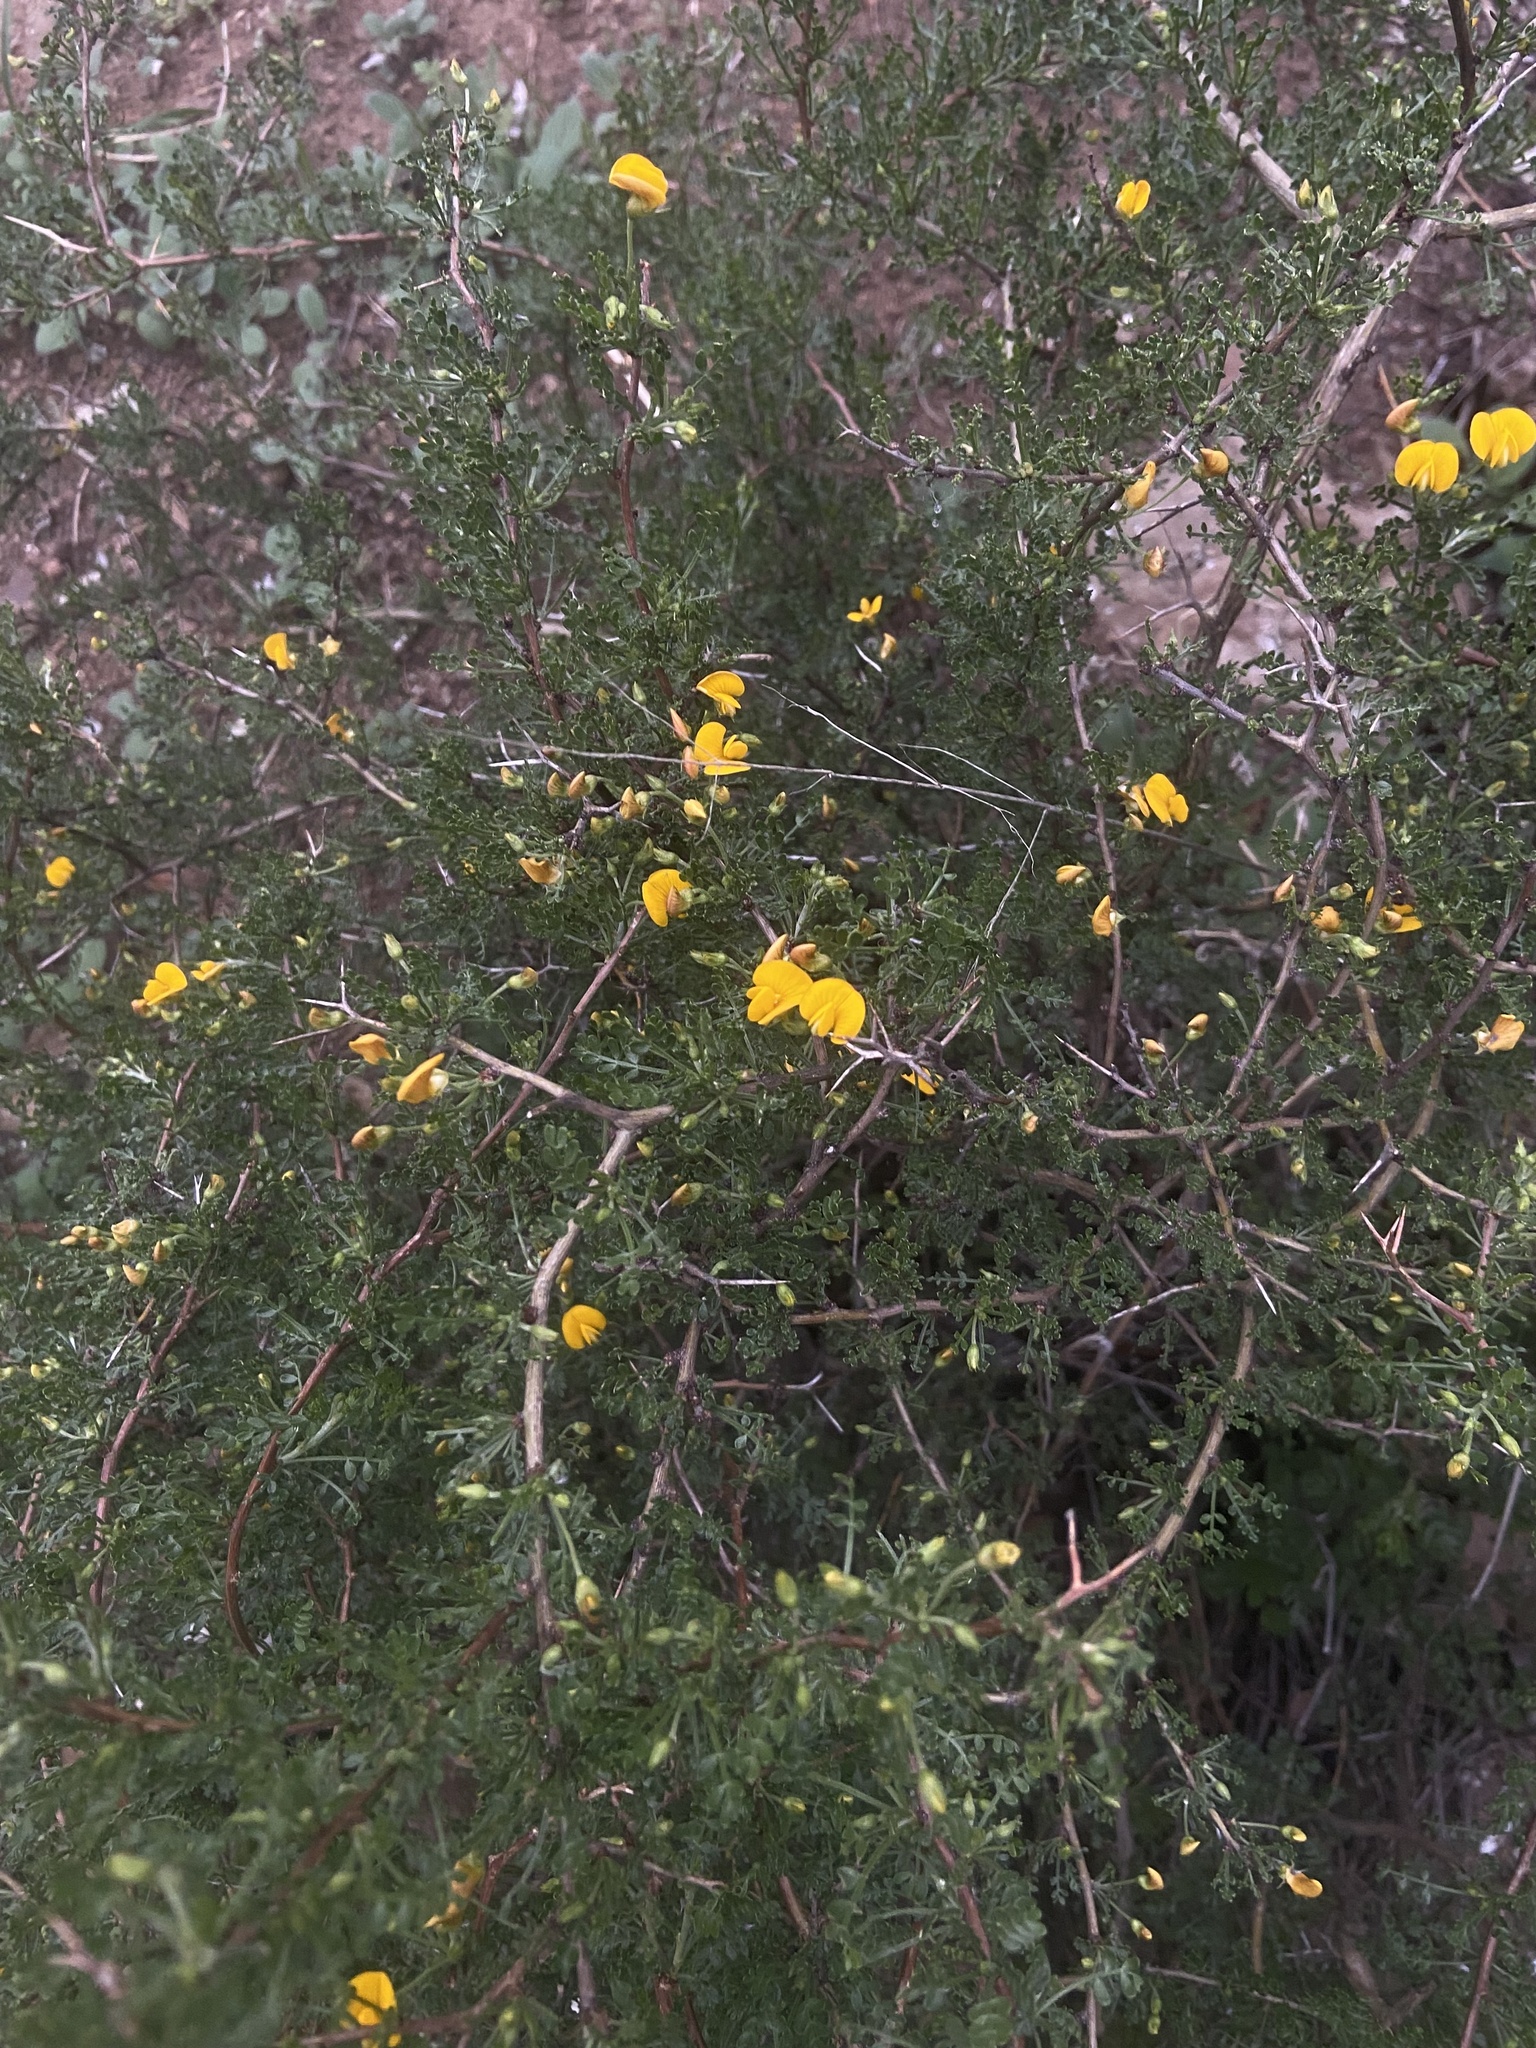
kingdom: Plantae
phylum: Tracheophyta
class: Magnoliopsida
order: Fabales
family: Fabaceae
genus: Adesmia
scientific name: Adesmia confusa
